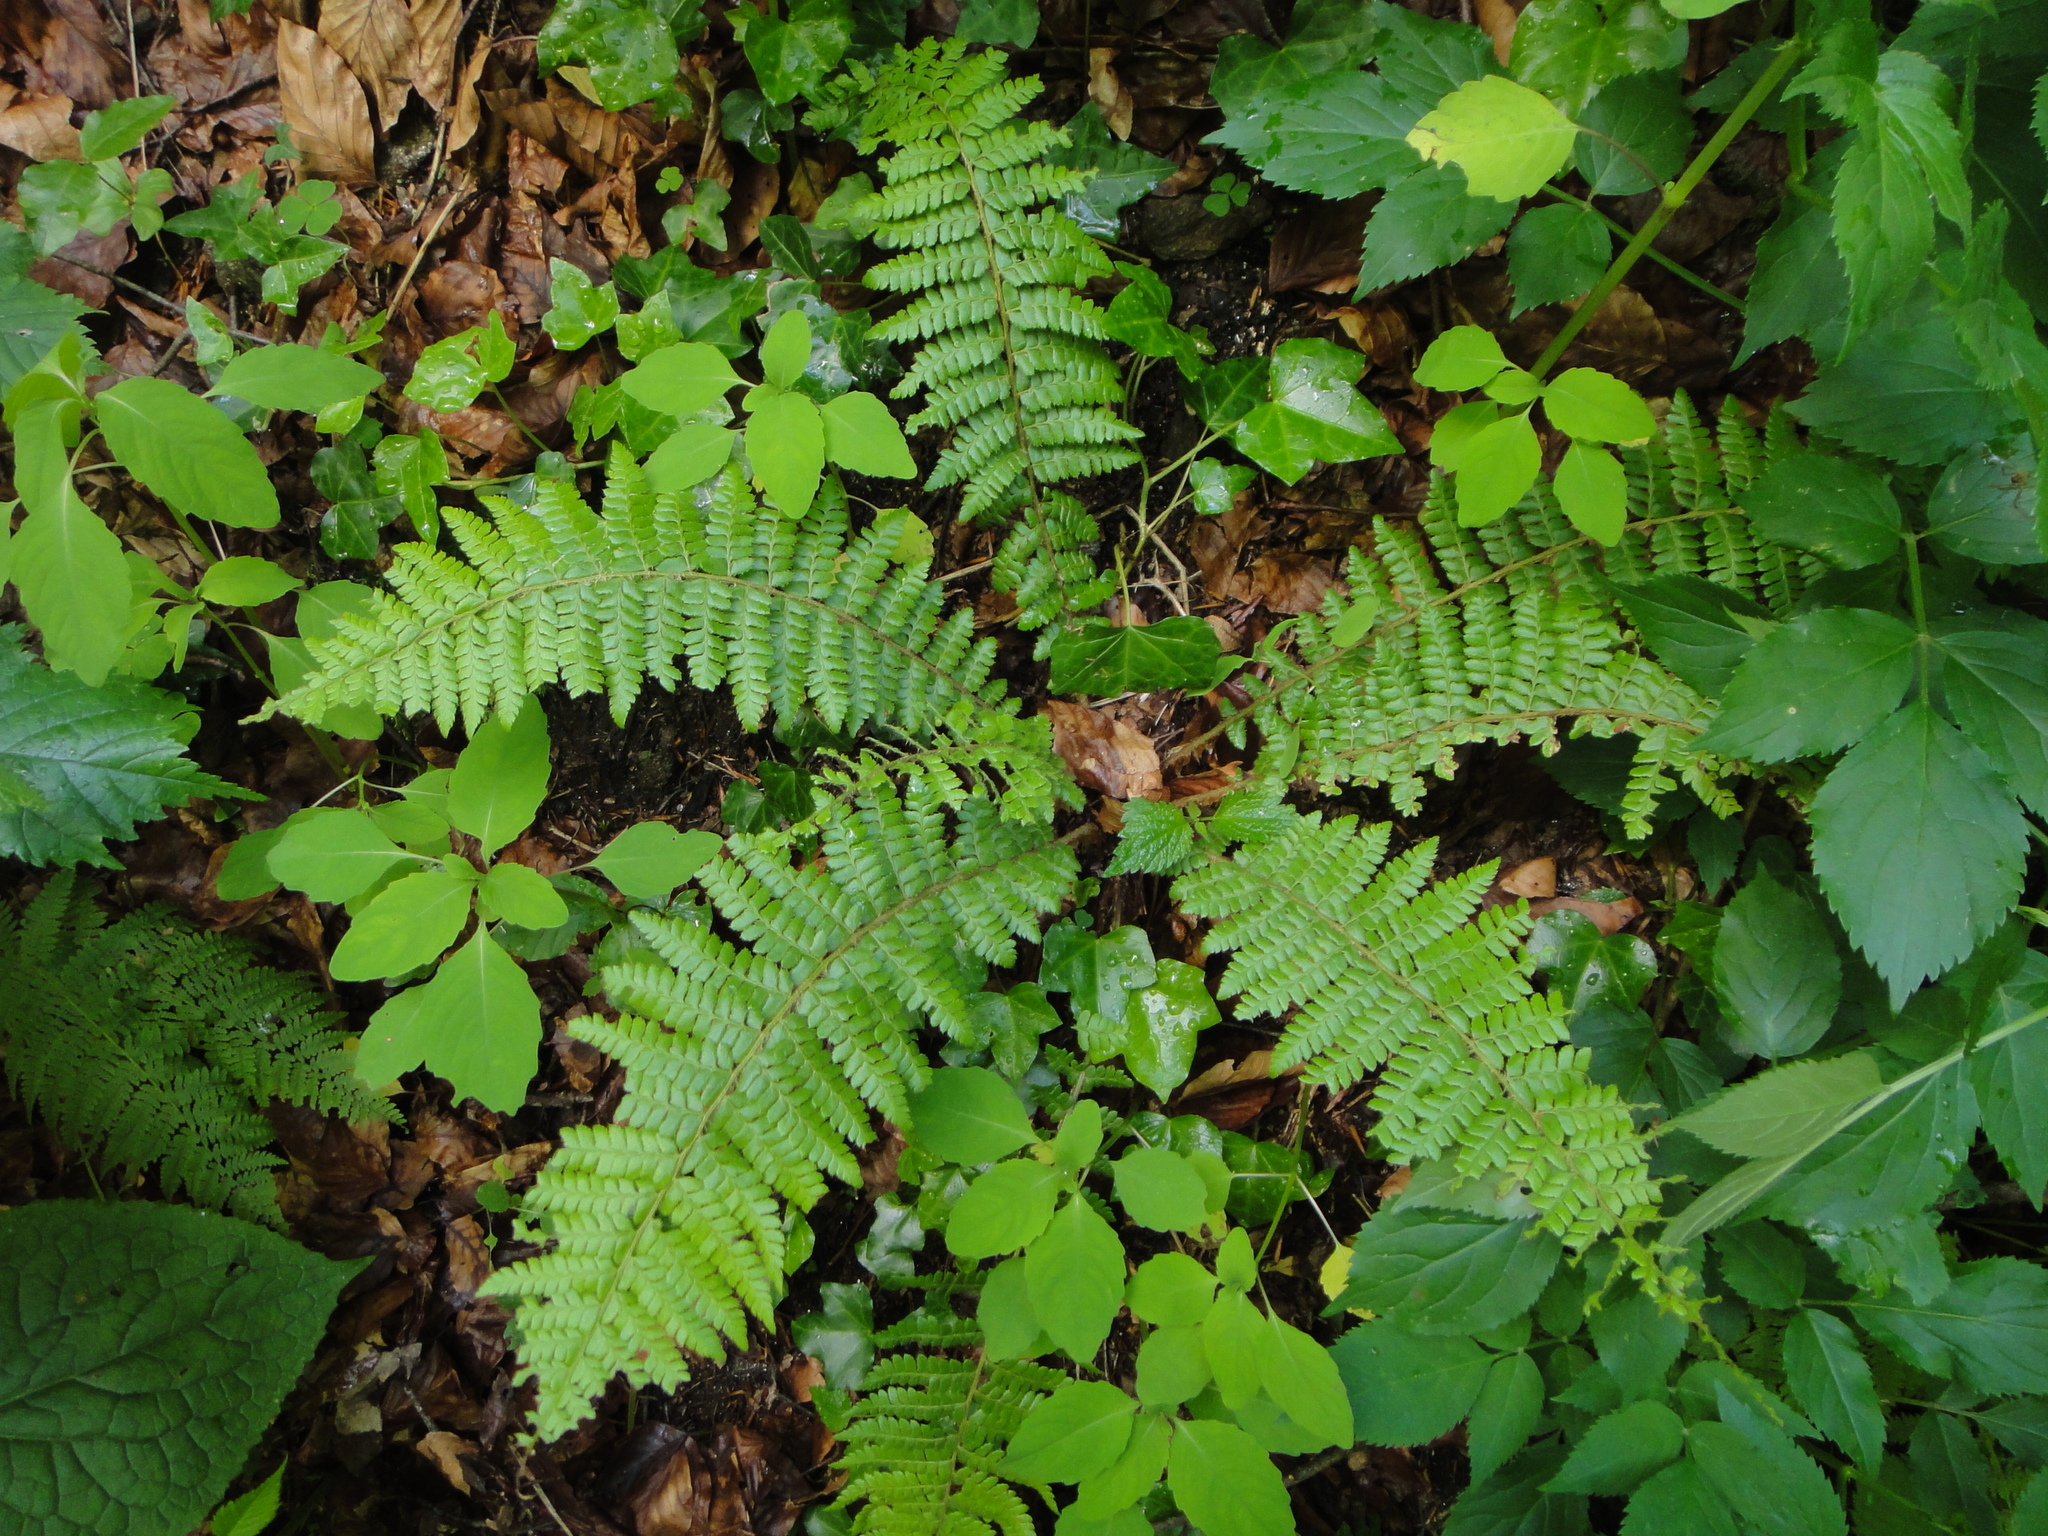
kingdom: Plantae
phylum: Tracheophyta
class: Polypodiopsida
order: Polypodiales
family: Dryopteridaceae
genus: Polystichum
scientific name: Polystichum braunii
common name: Braun's holly fern
